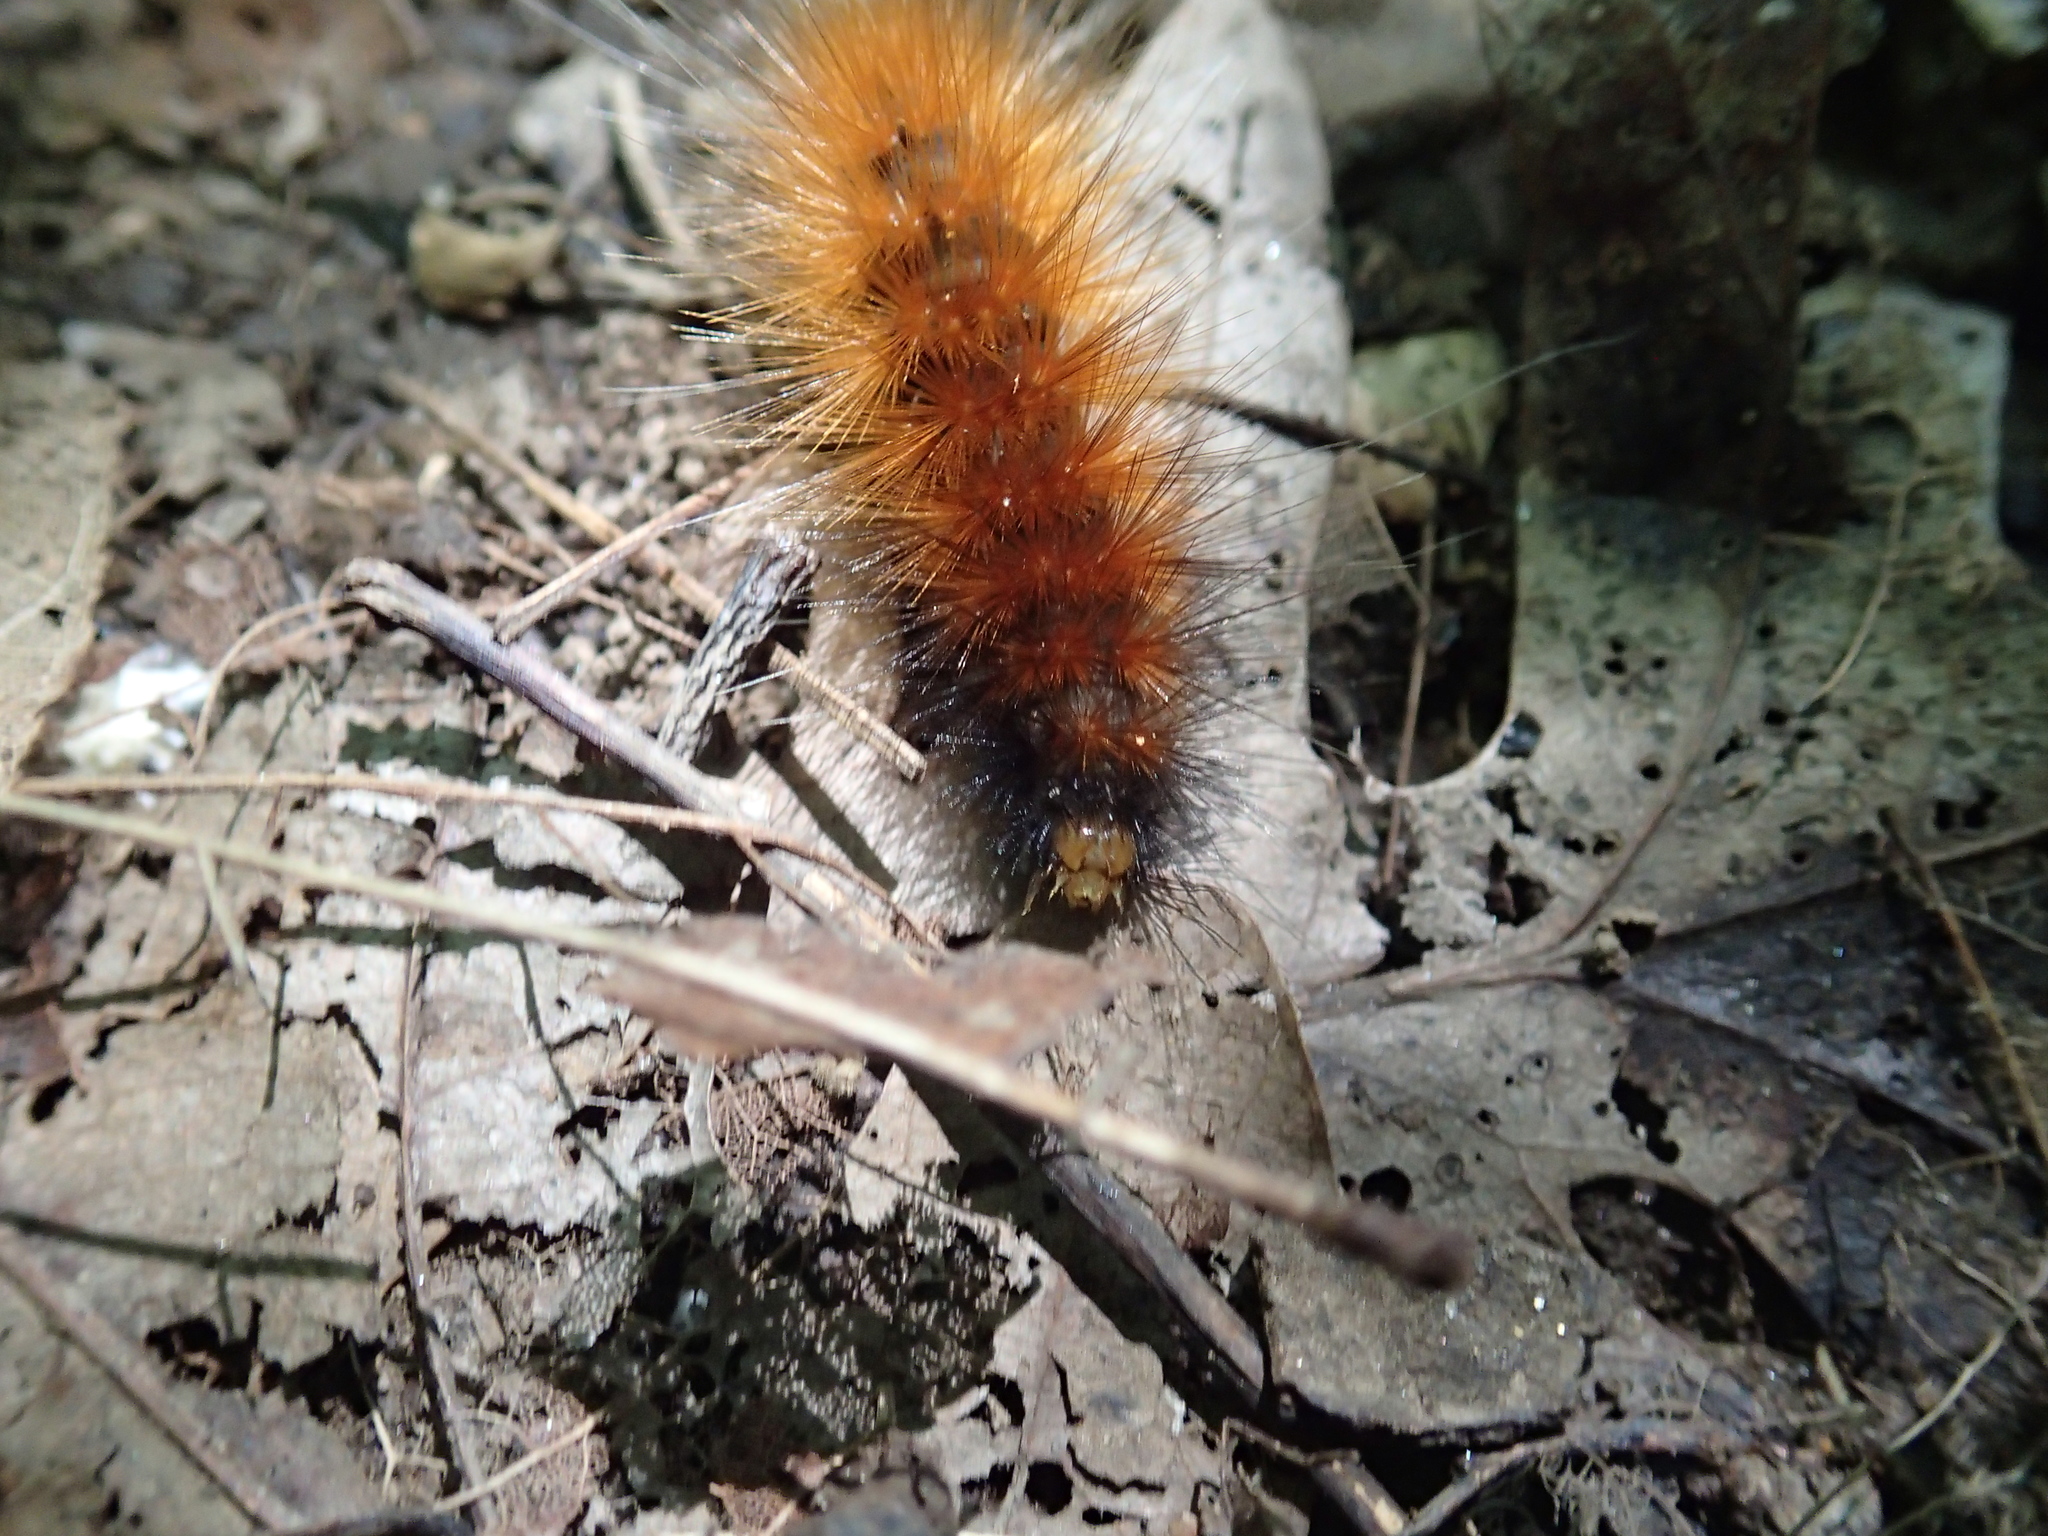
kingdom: Animalia
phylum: Arthropoda
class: Insecta
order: Lepidoptera
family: Erebidae
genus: Pyrrharctia
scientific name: Pyrrharctia isabella
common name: Isabella tiger moth
